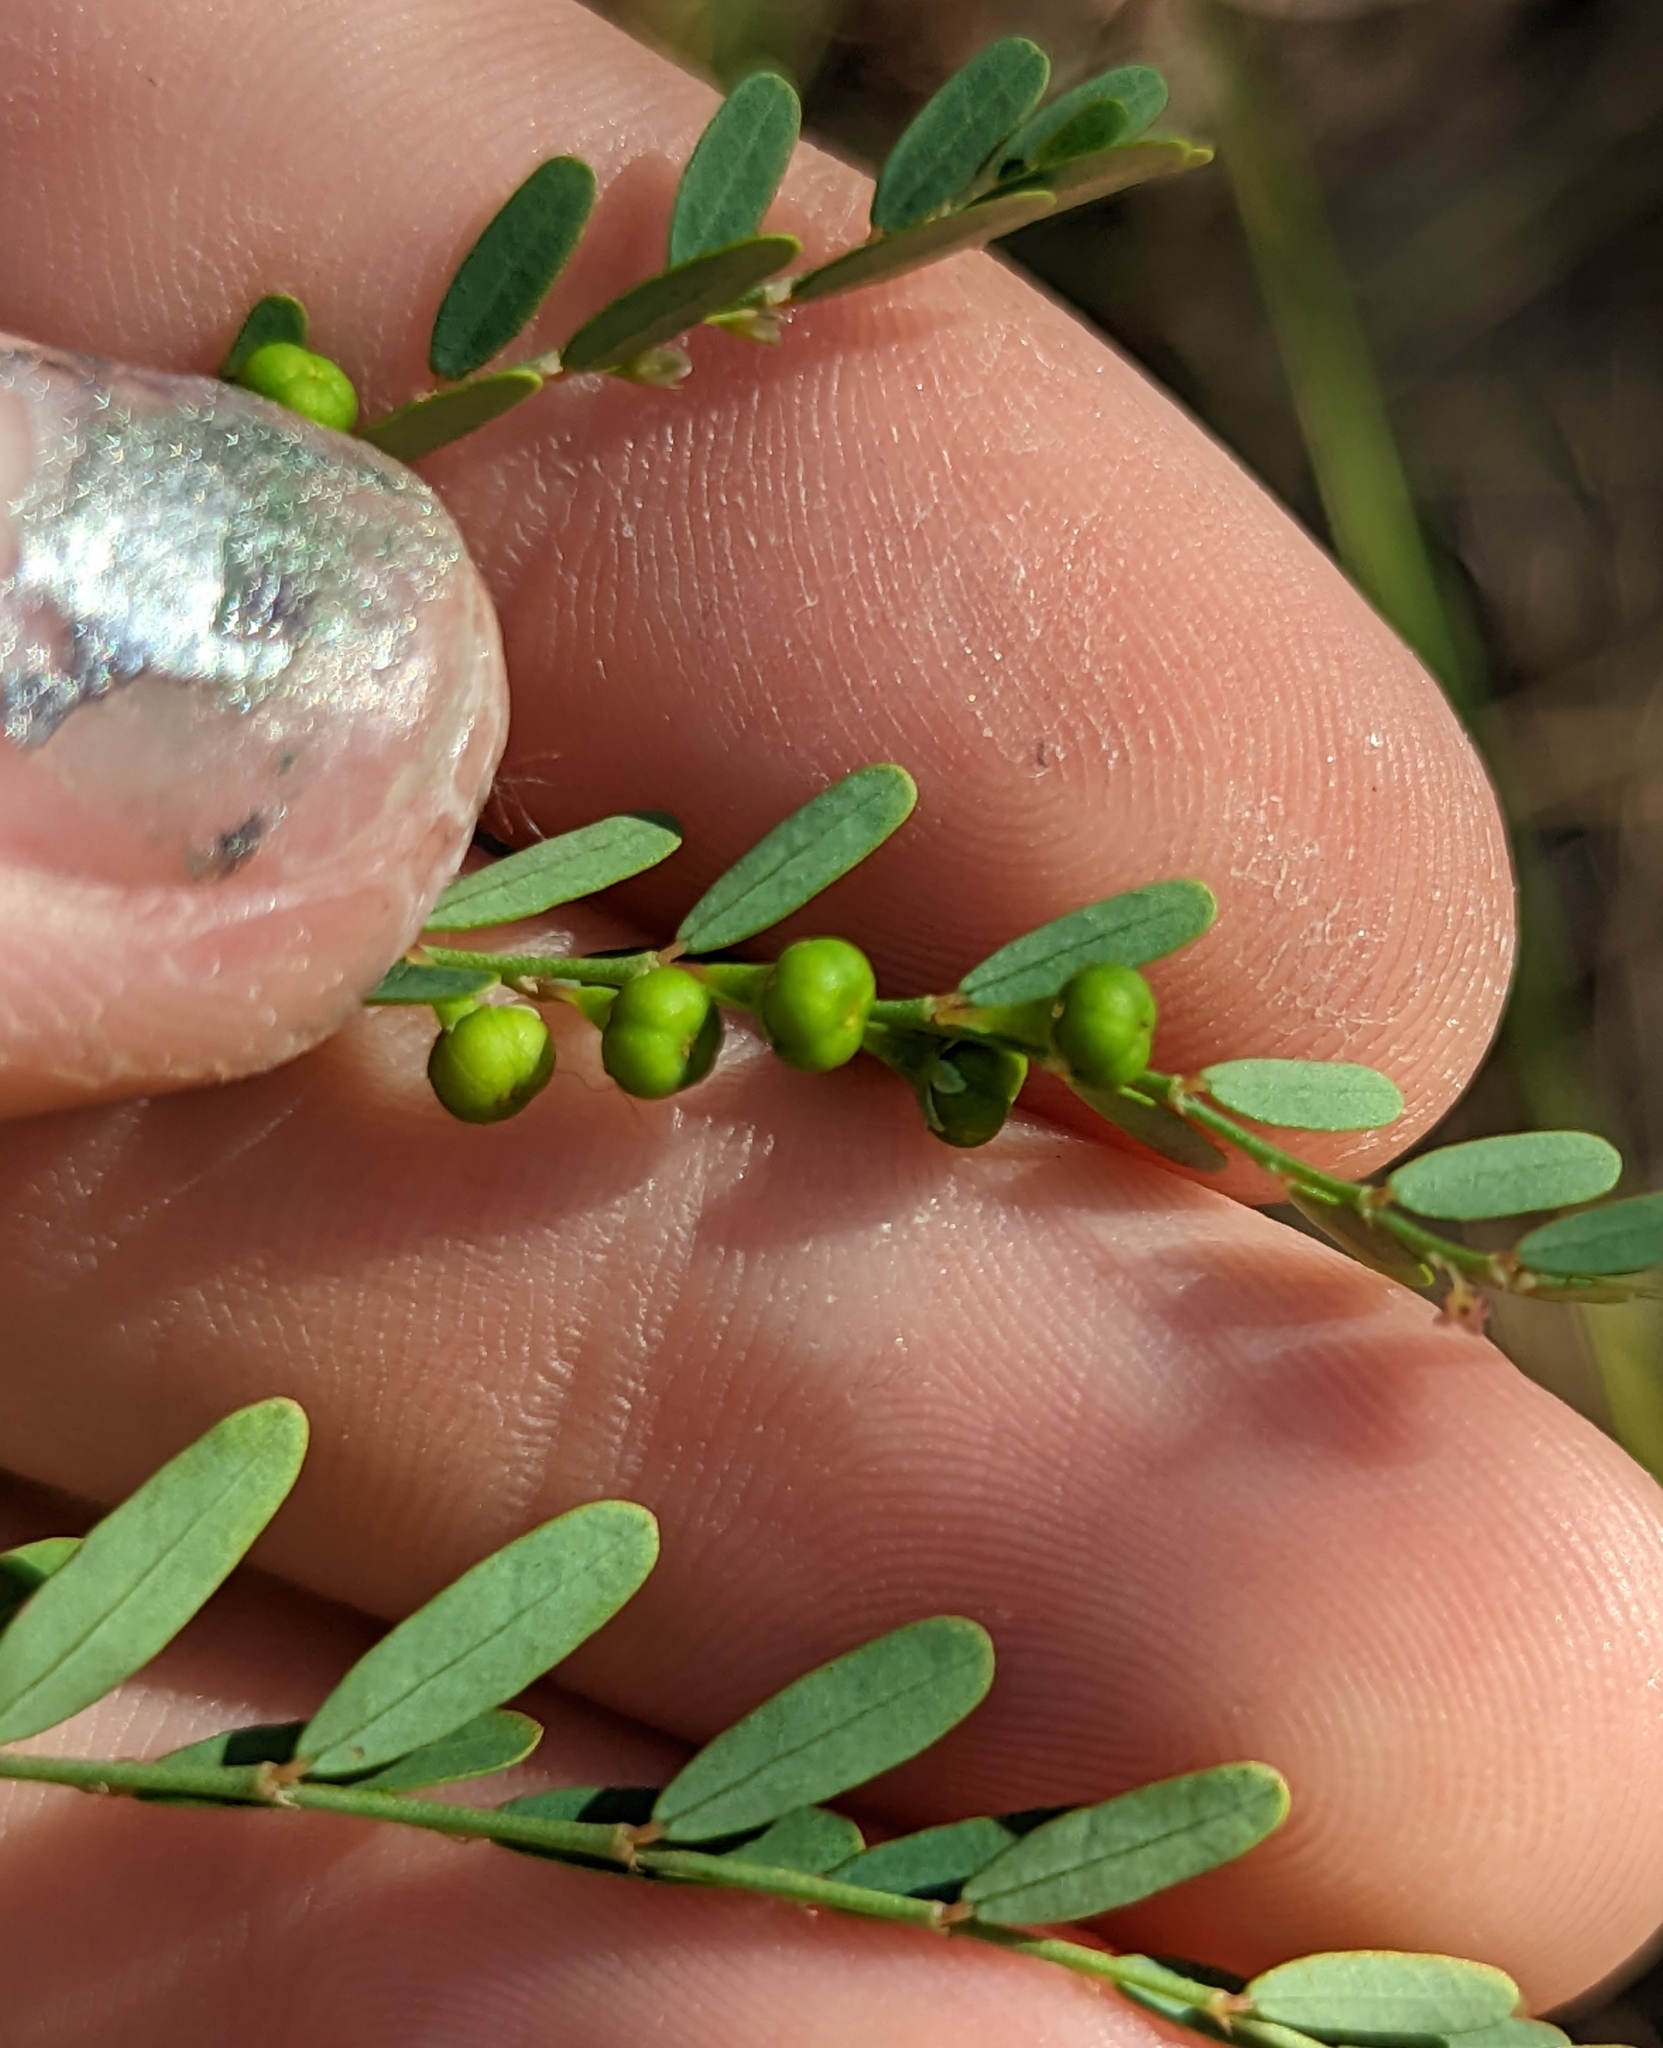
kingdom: Plantae
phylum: Tracheophyta
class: Magnoliopsida
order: Malpighiales
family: Phyllanthaceae
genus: Phyllanthus
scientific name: Phyllanthus abnormis
